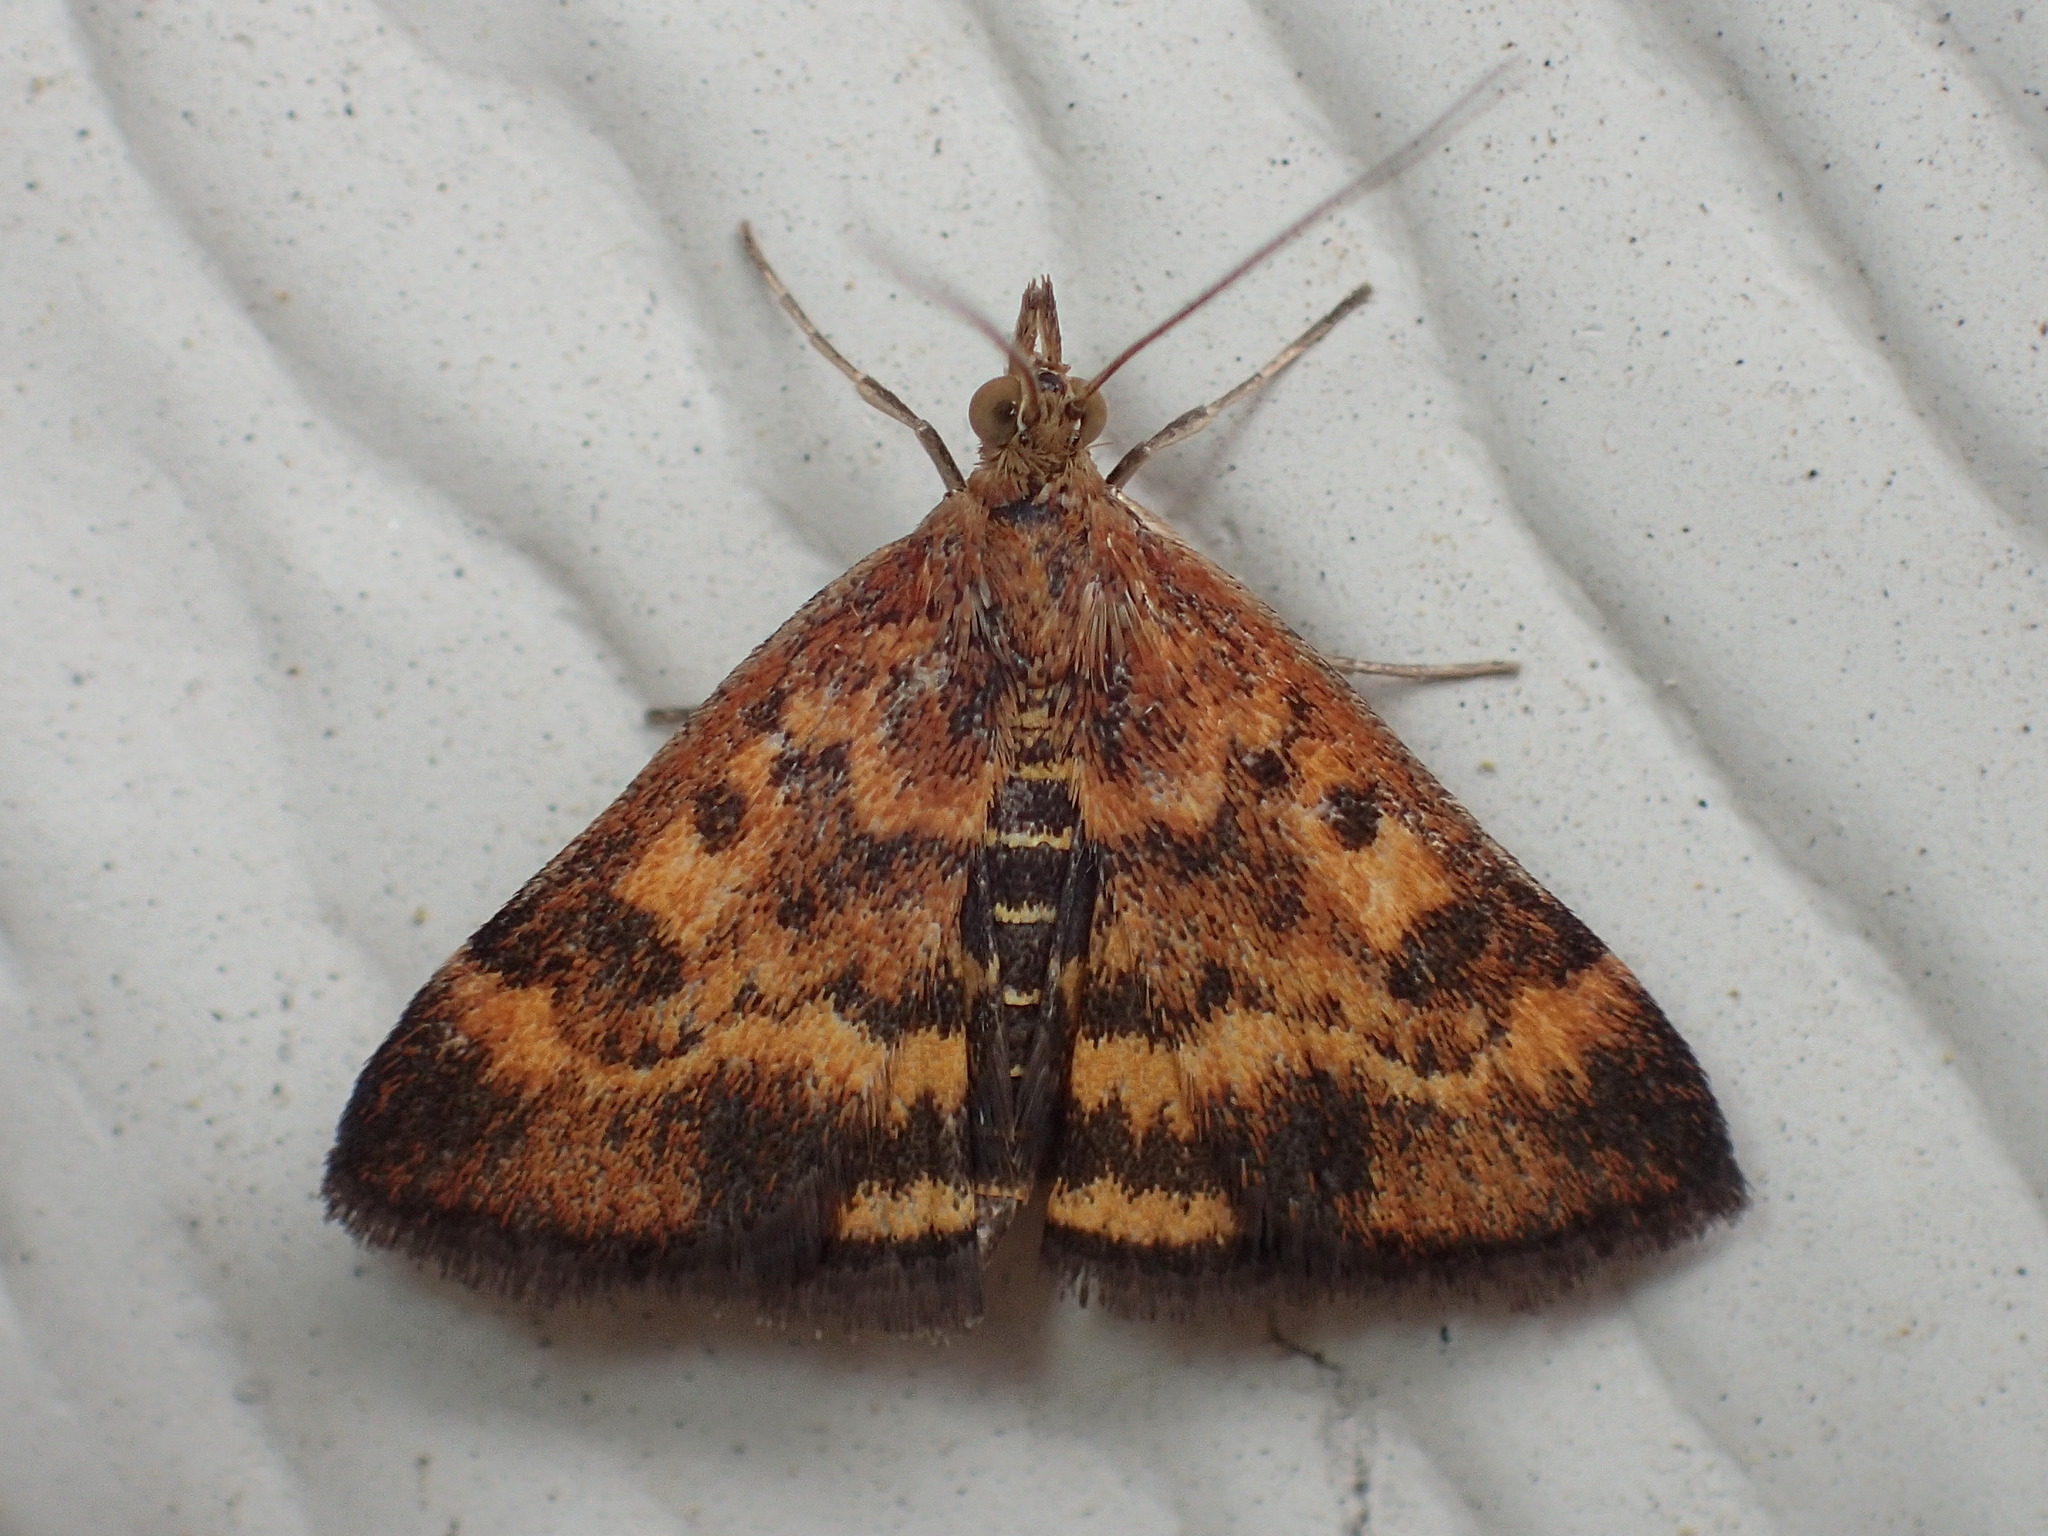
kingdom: Animalia
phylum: Arthropoda
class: Insecta
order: Lepidoptera
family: Crambidae
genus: Pyrausta
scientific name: Pyrausta subsequalis
